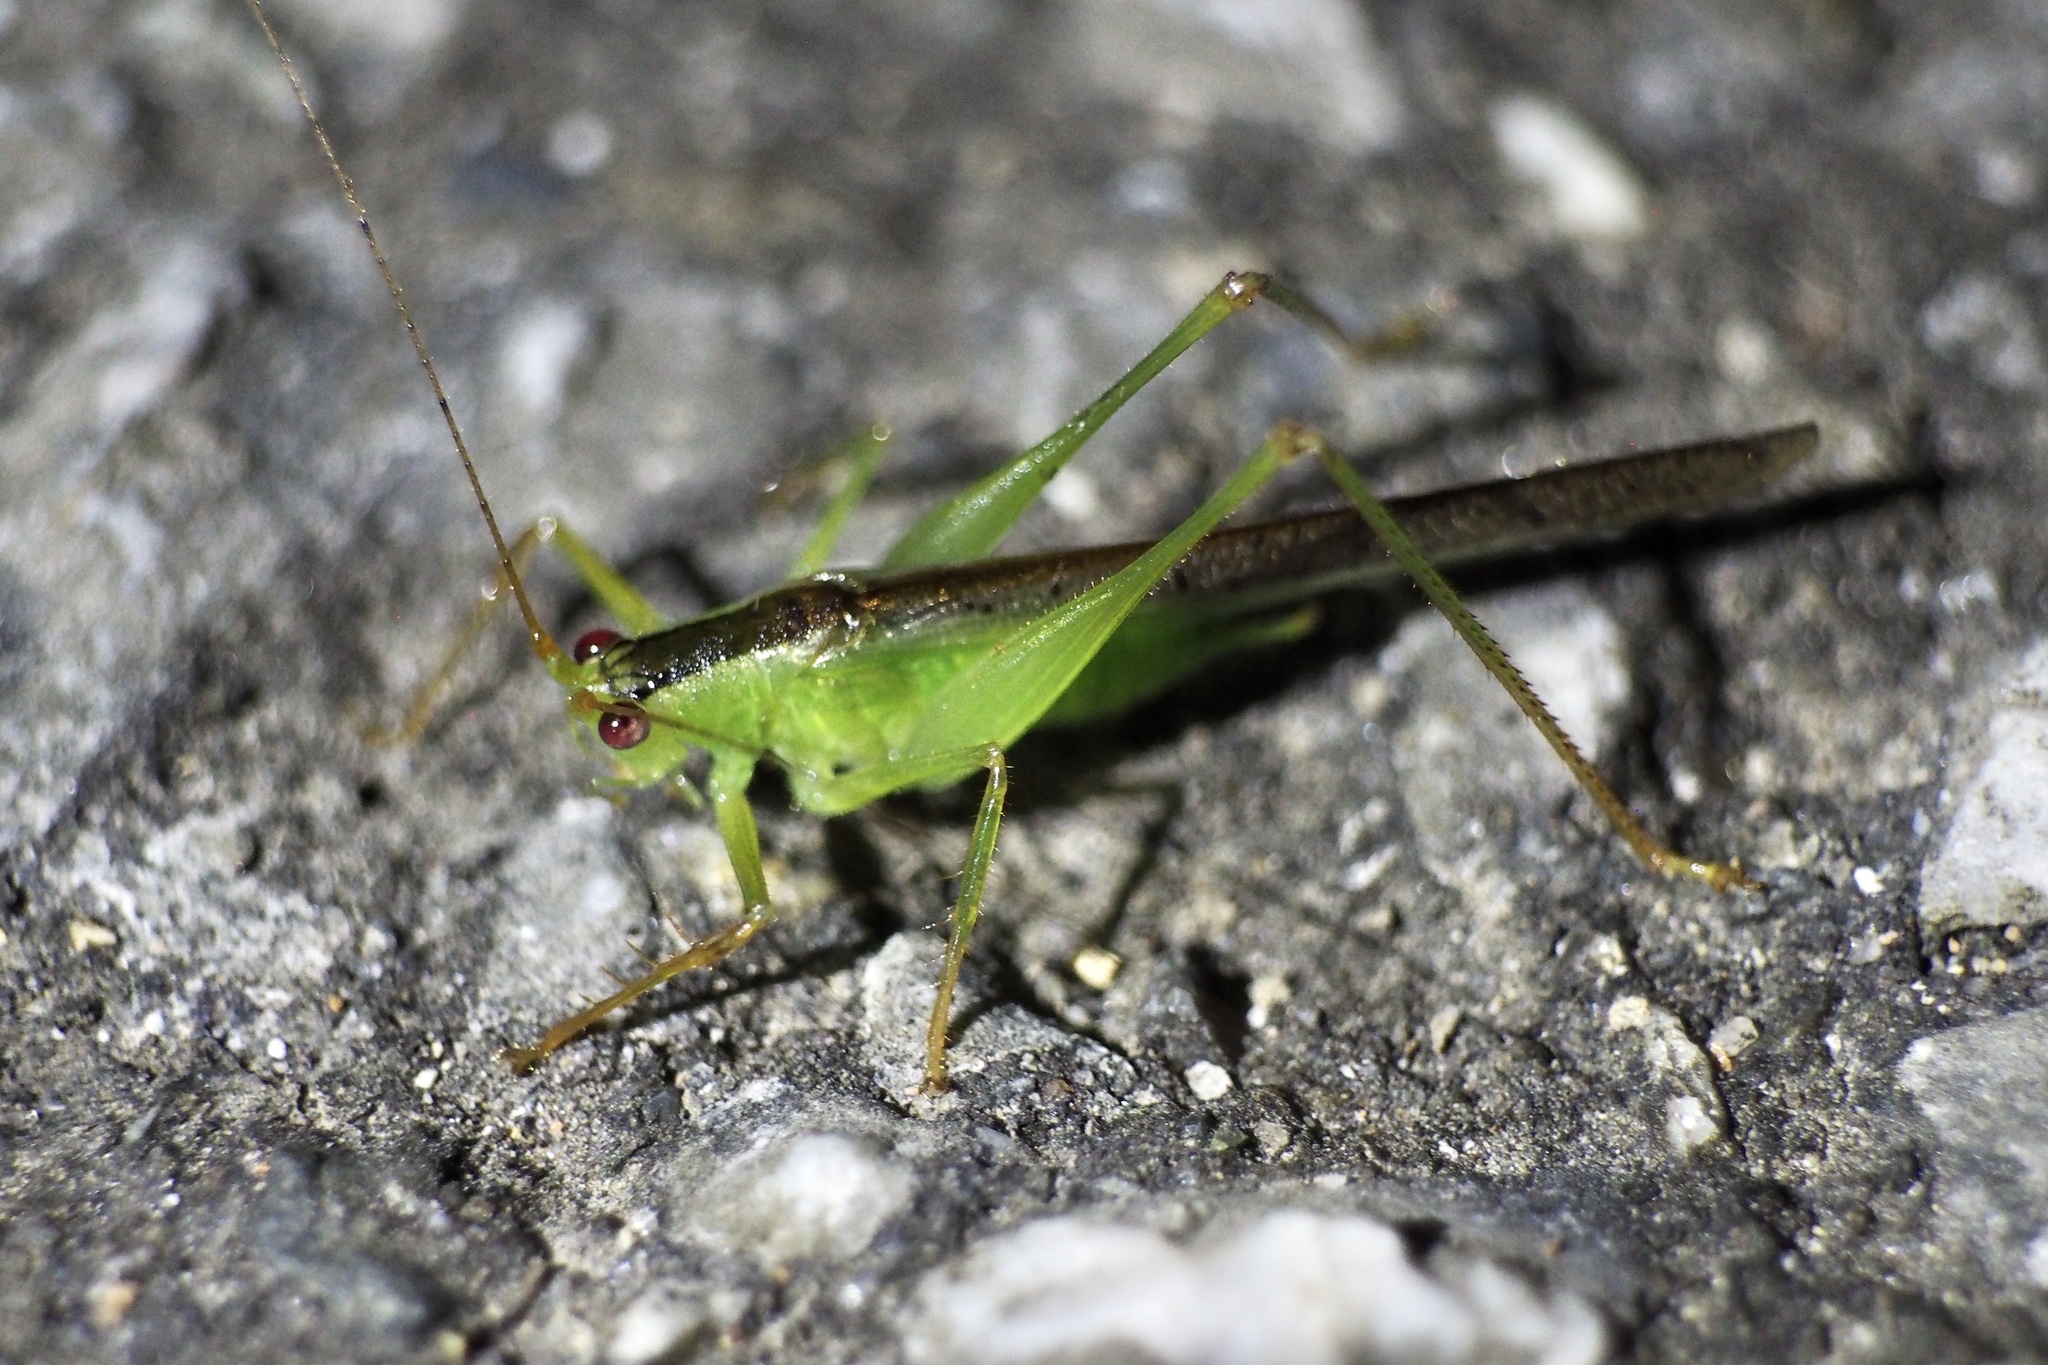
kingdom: Animalia
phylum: Arthropoda
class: Insecta
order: Orthoptera
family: Tettigoniidae
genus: Xiphidiopsis
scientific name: Xiphidiopsis subpunctata
